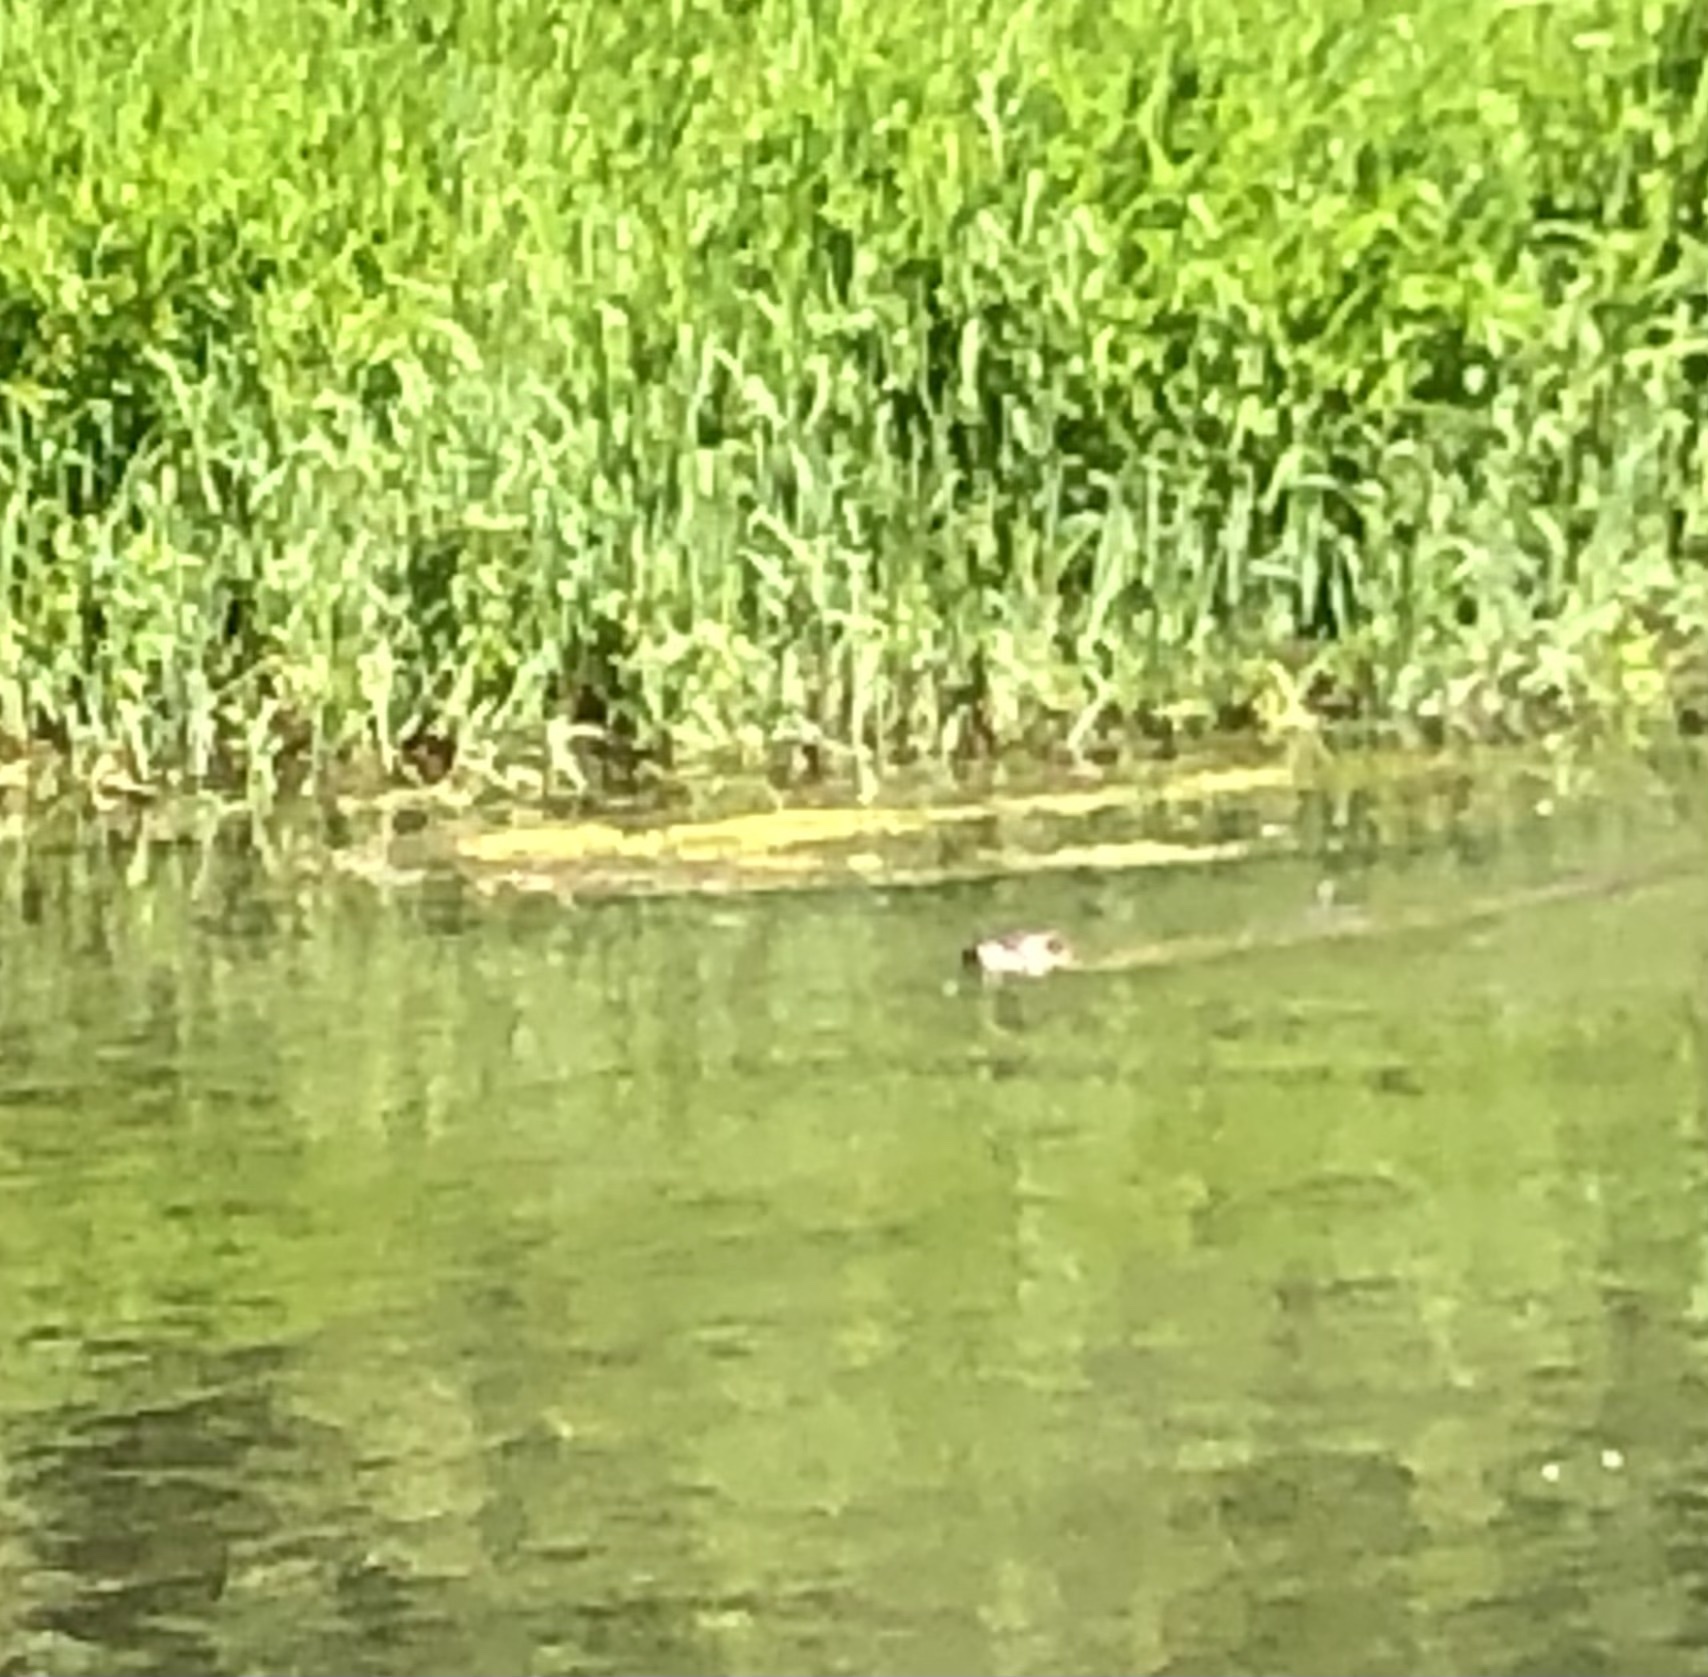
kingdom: Animalia
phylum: Chordata
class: Mammalia
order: Carnivora
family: Mustelidae
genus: Lontra
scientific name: Lontra canadensis
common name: North american river otter
